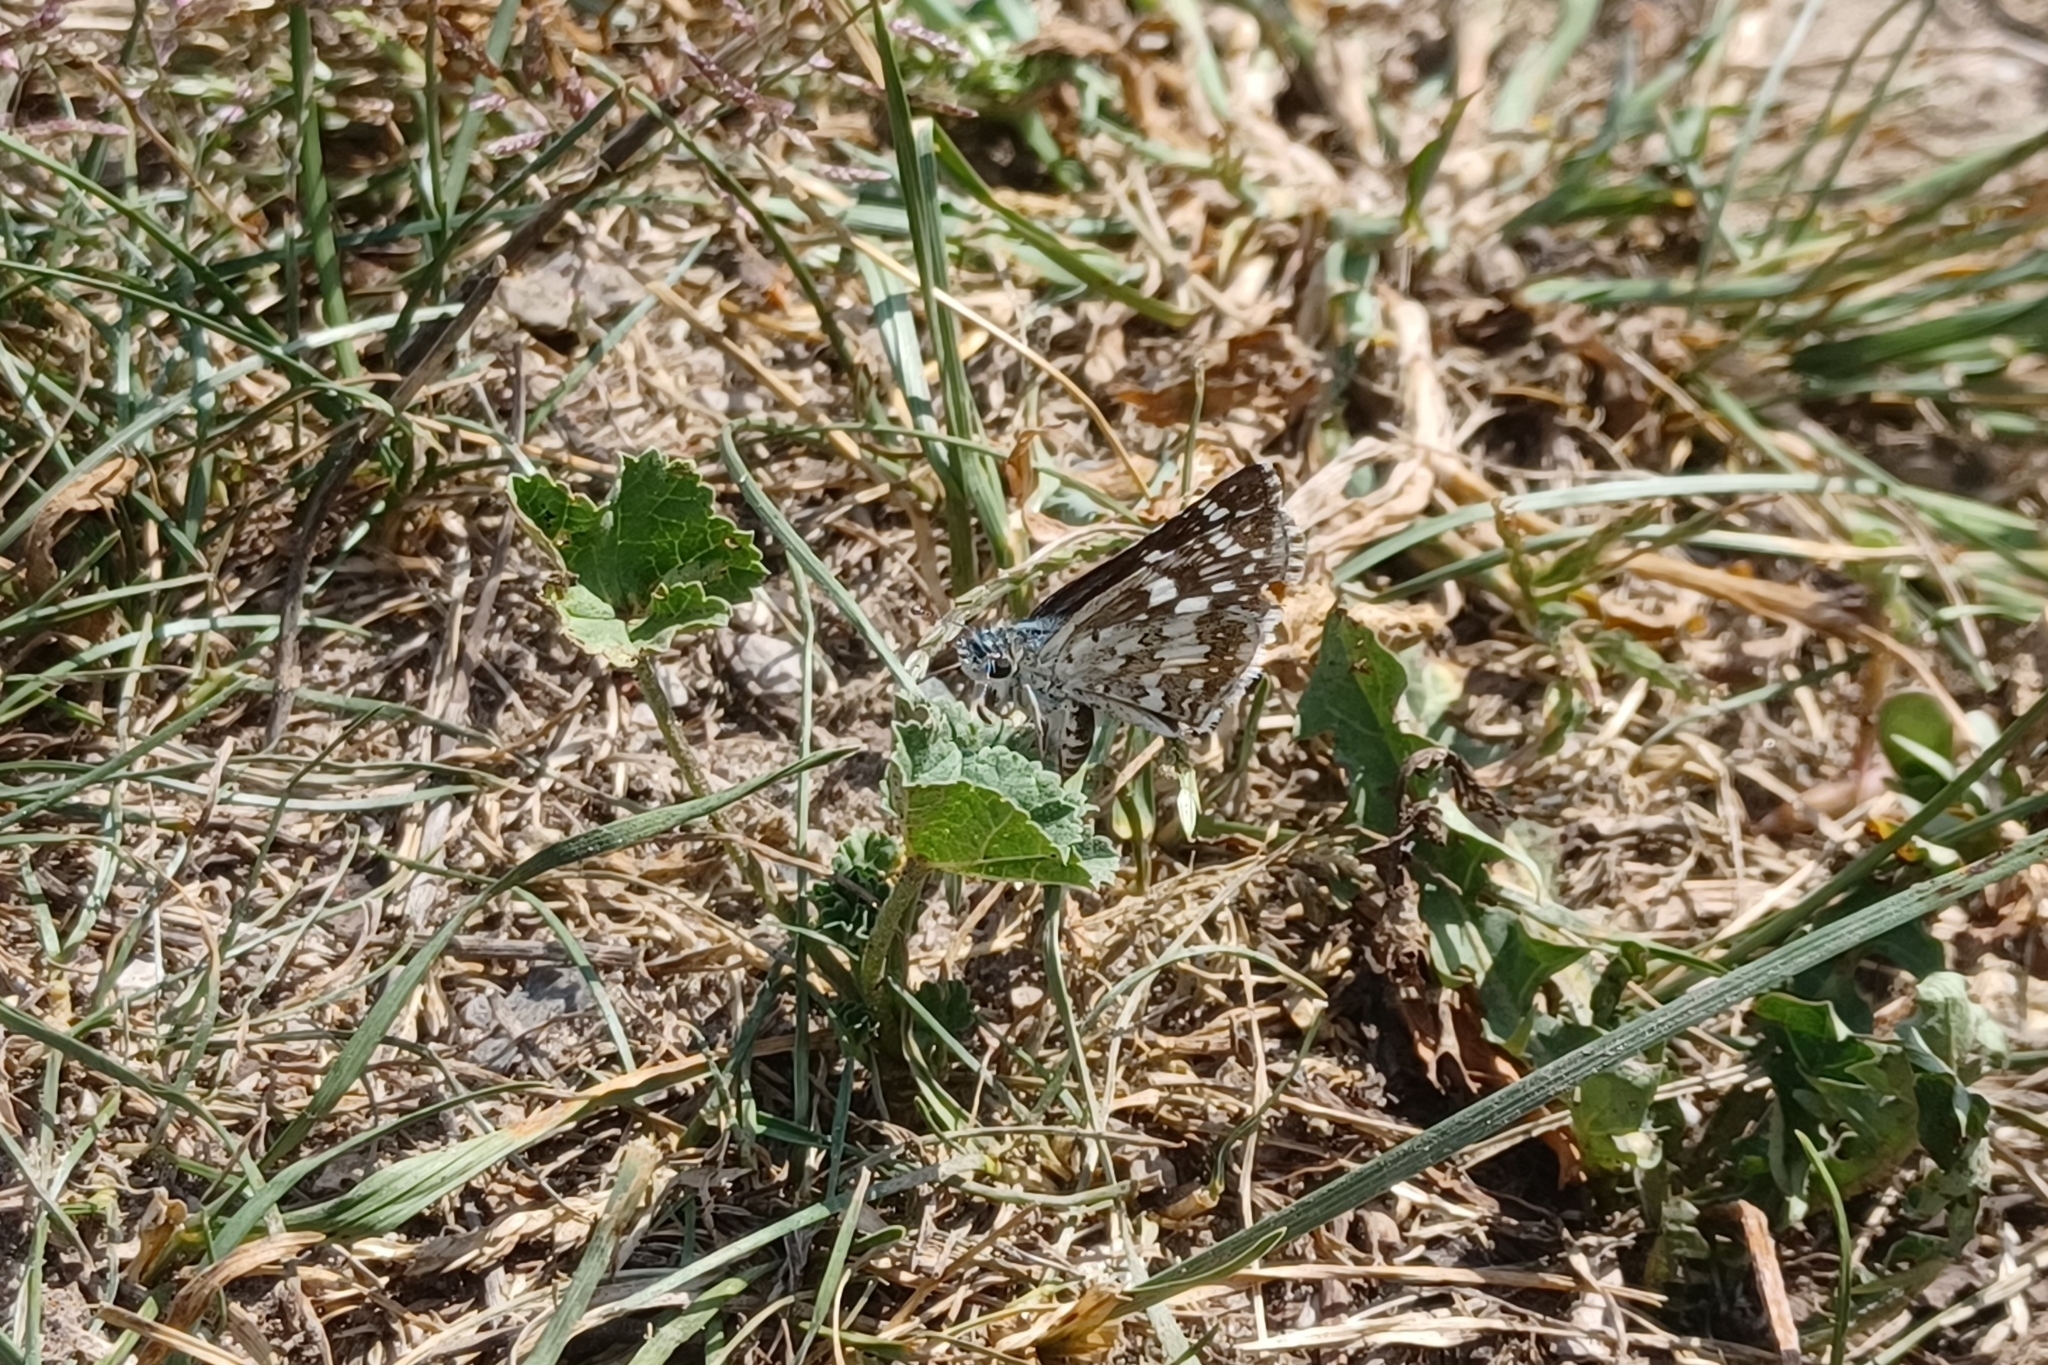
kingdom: Animalia
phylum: Arthropoda
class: Insecta
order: Lepidoptera
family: Hesperiidae
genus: Burnsius
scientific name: Burnsius communis
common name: Common checkered-skipper
